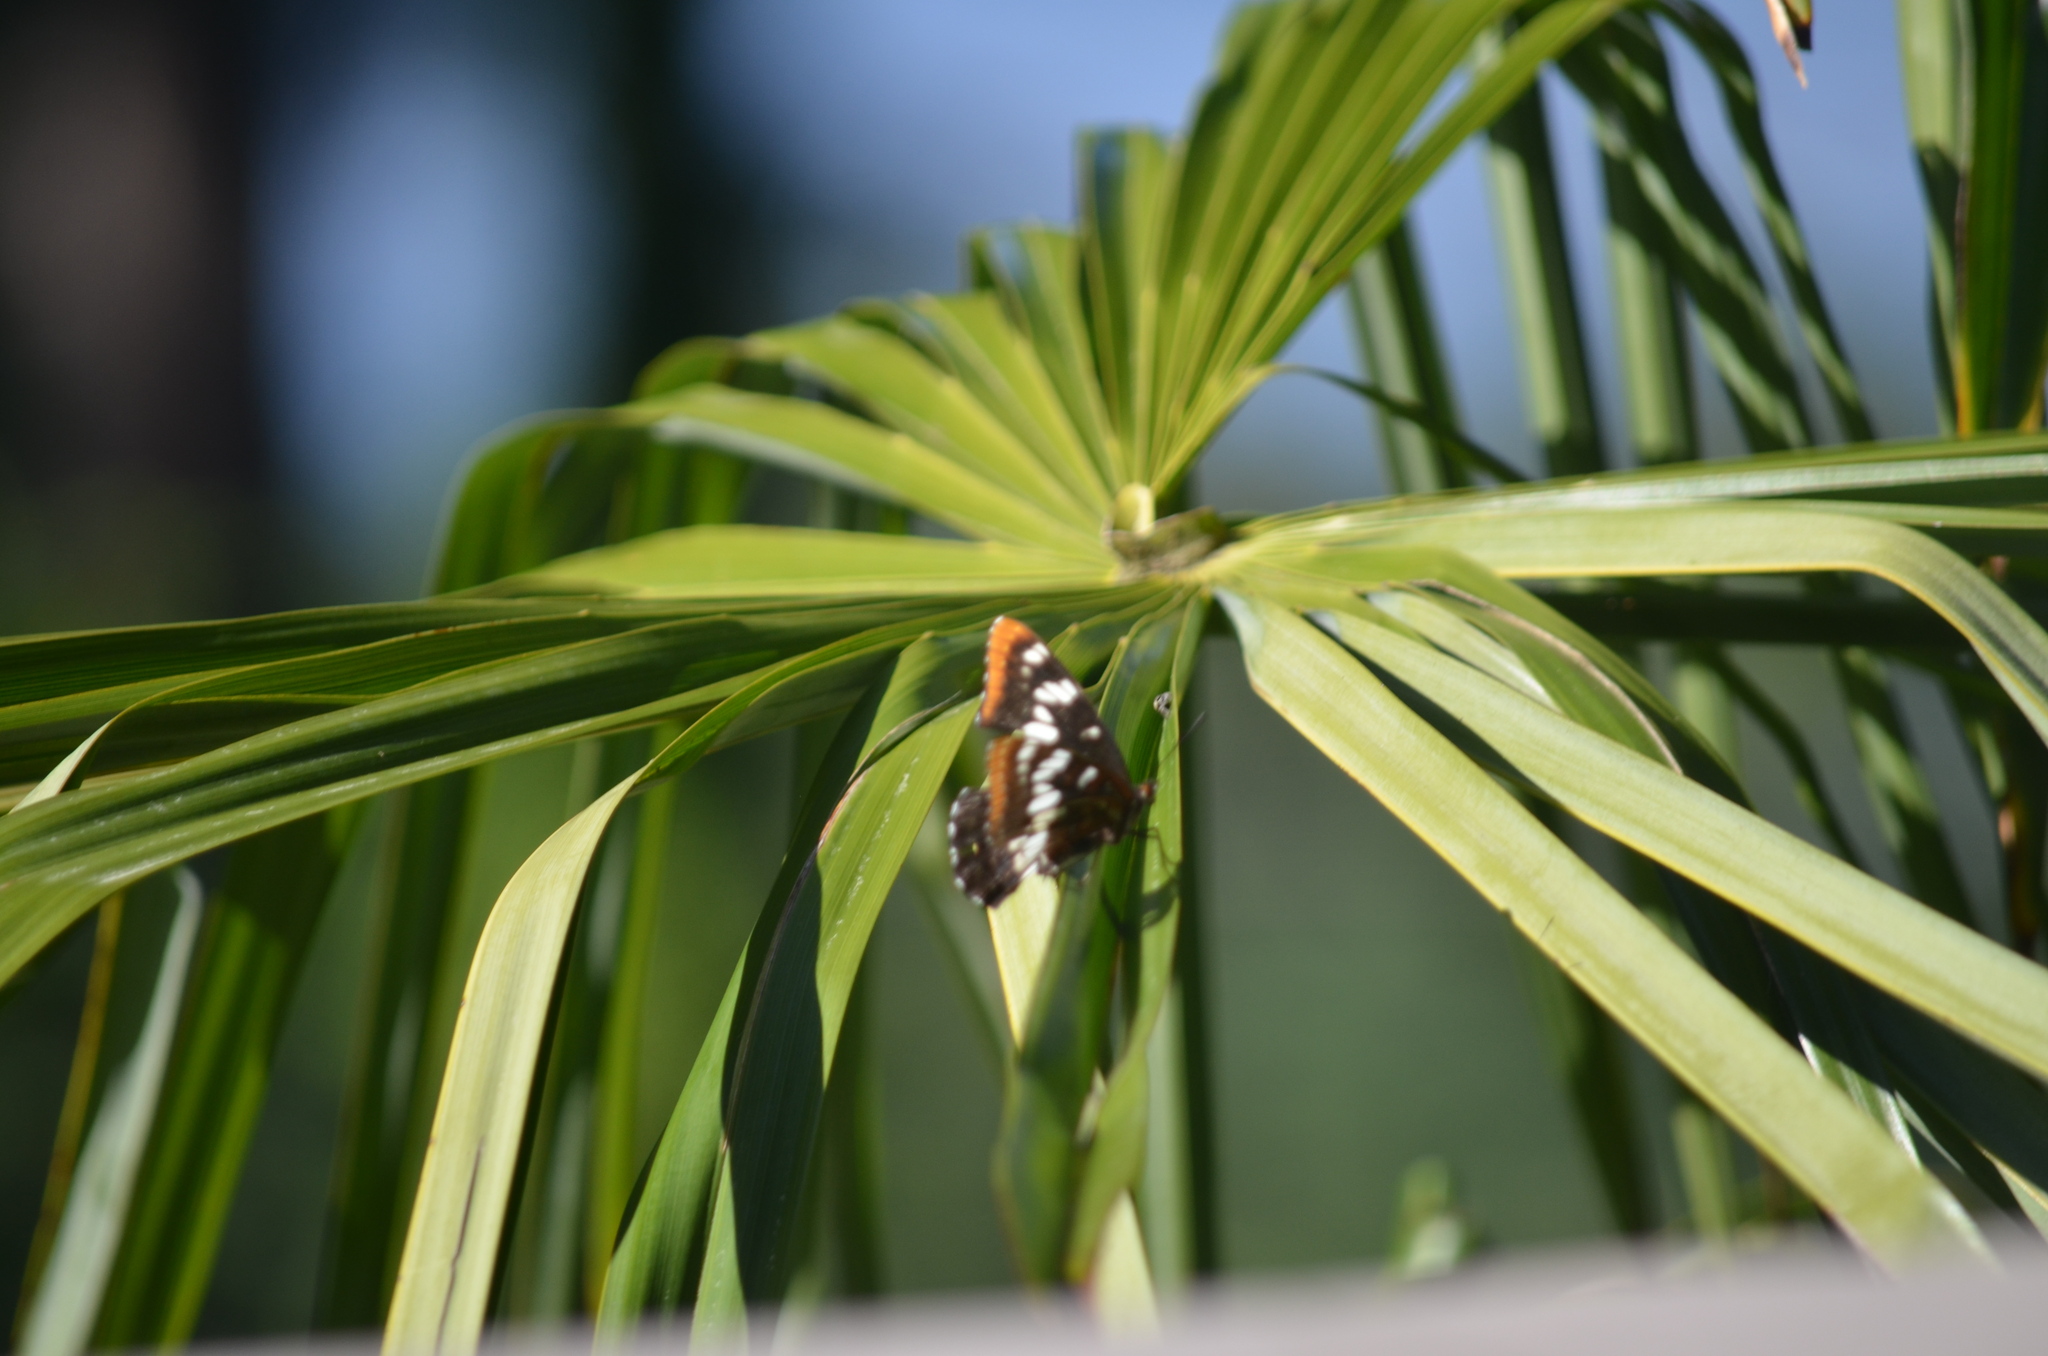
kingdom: Animalia
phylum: Arthropoda
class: Insecta
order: Lepidoptera
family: Nymphalidae
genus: Limenitis
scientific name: Limenitis lorquini
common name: Lorquin's admiral
